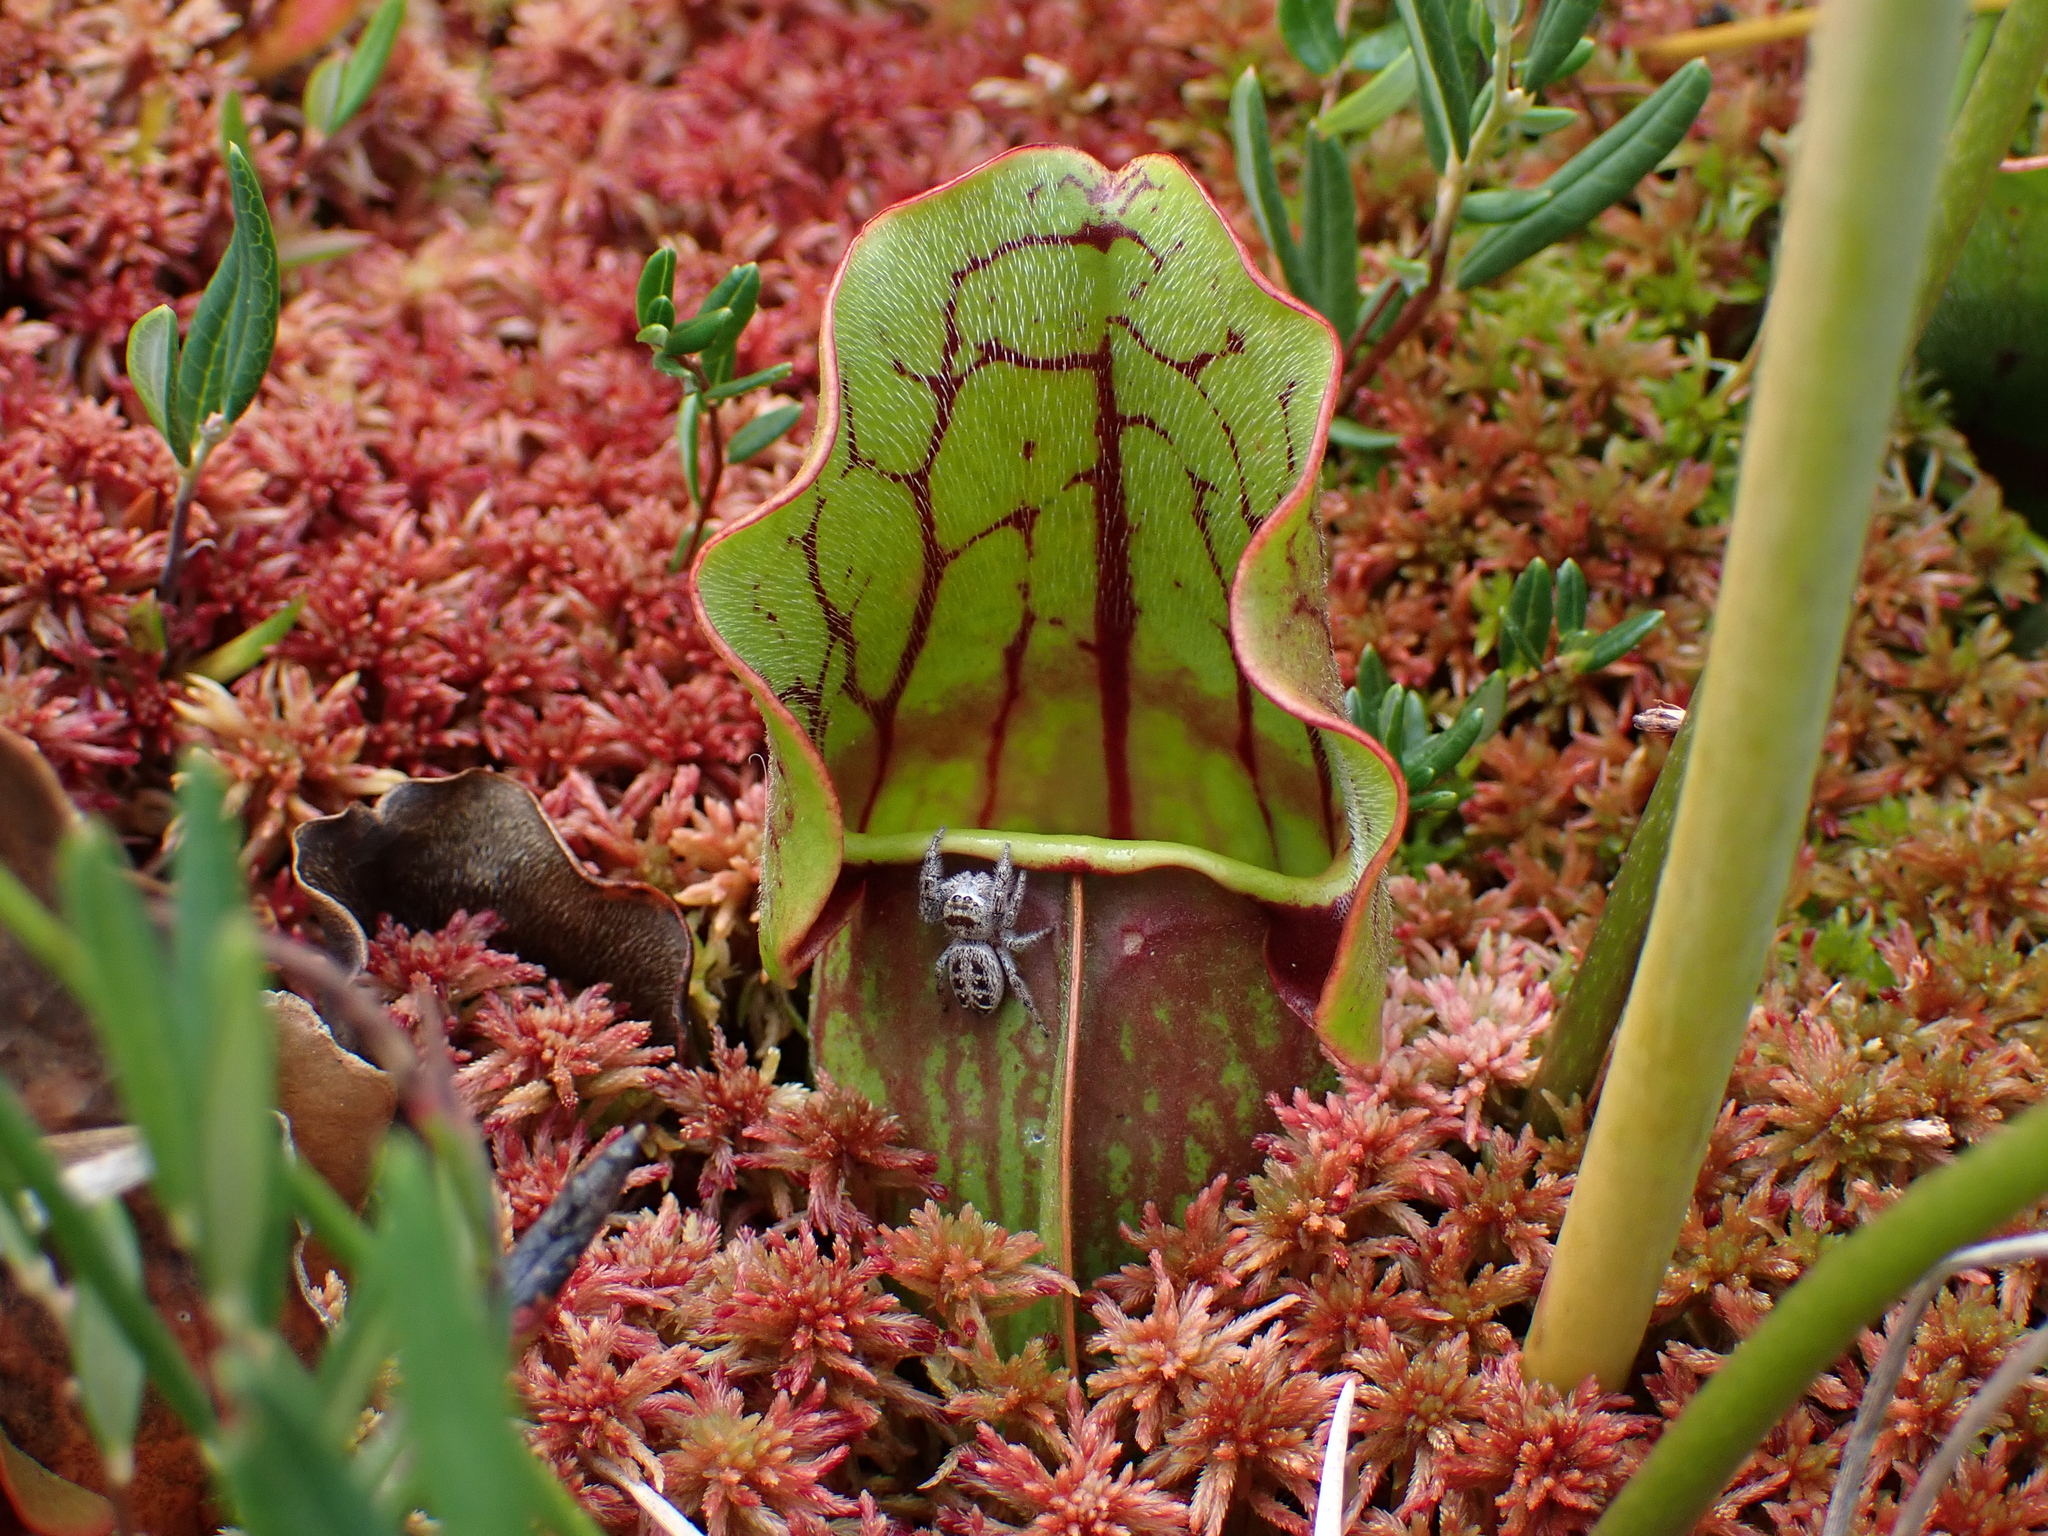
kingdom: Plantae
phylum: Tracheophyta
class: Magnoliopsida
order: Ericales
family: Sarraceniaceae
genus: Sarracenia
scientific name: Sarracenia purpurea
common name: Pitcherplant
